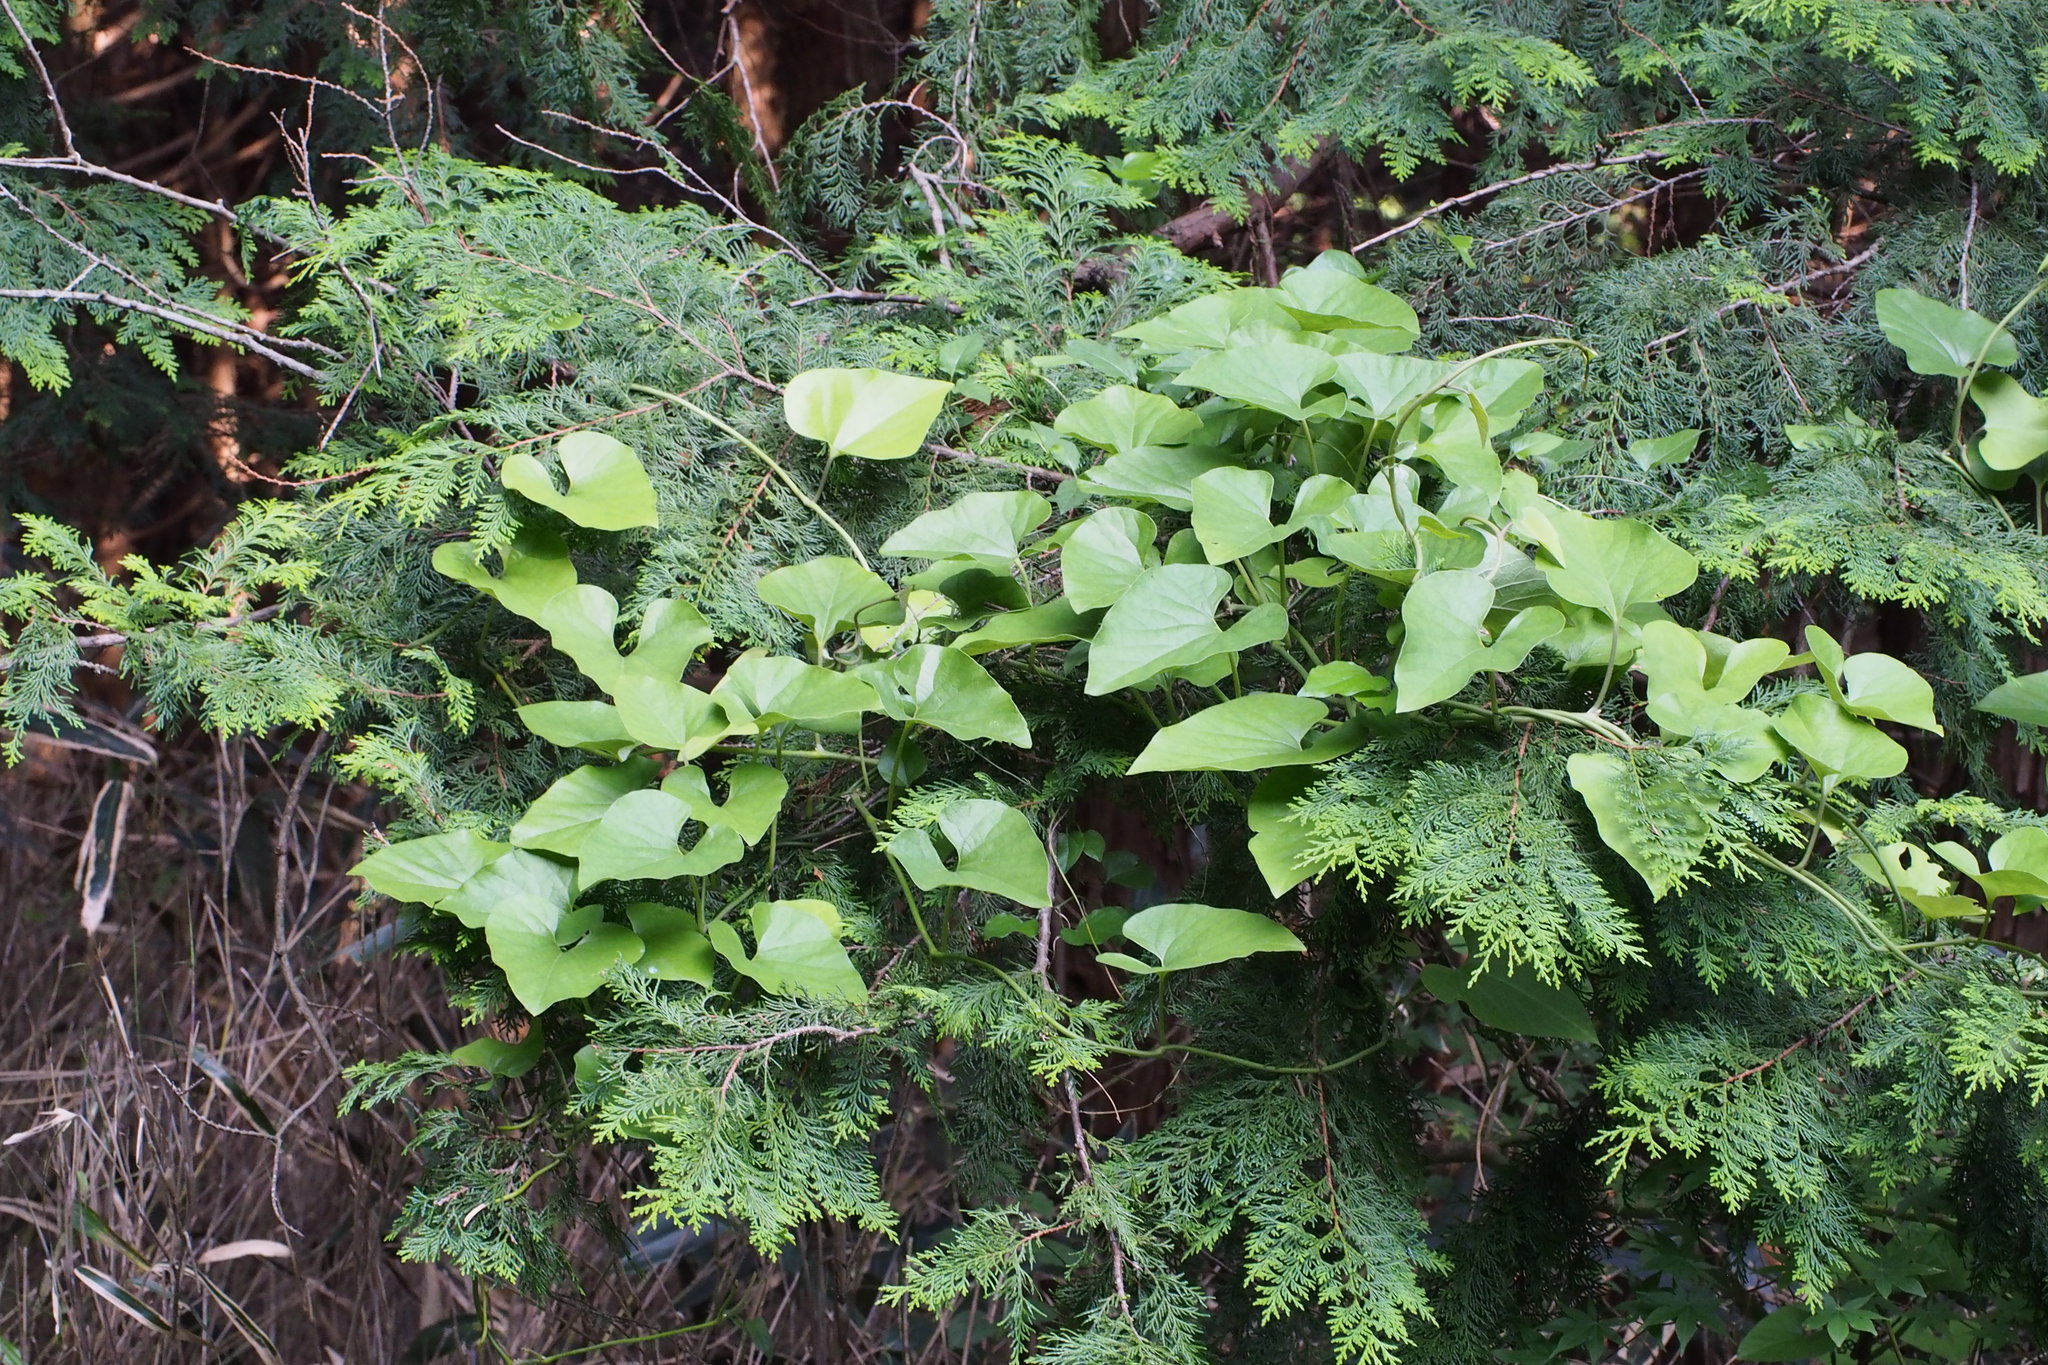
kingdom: Plantae
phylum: Tracheophyta
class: Magnoliopsida
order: Piperales
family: Aristolochiaceae
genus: Isotrema
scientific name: Isotrema kaempferi
